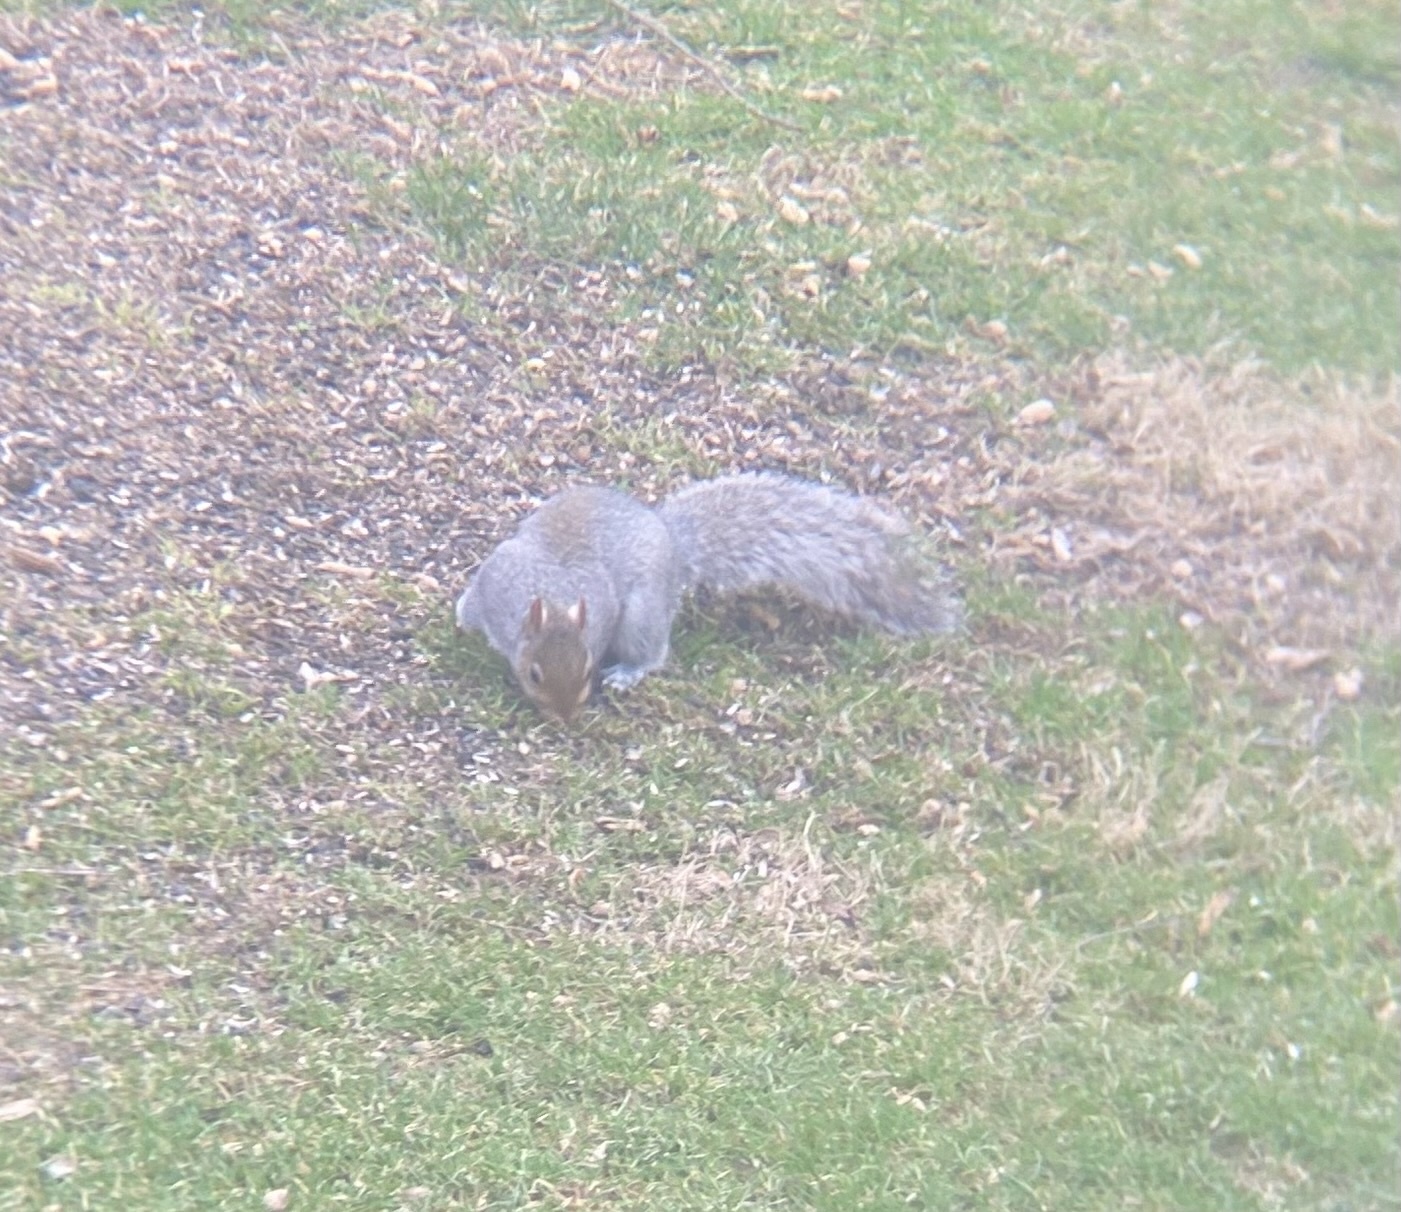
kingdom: Animalia
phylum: Chordata
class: Mammalia
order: Rodentia
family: Sciuridae
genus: Sciurus
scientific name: Sciurus carolinensis
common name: Eastern gray squirrel
